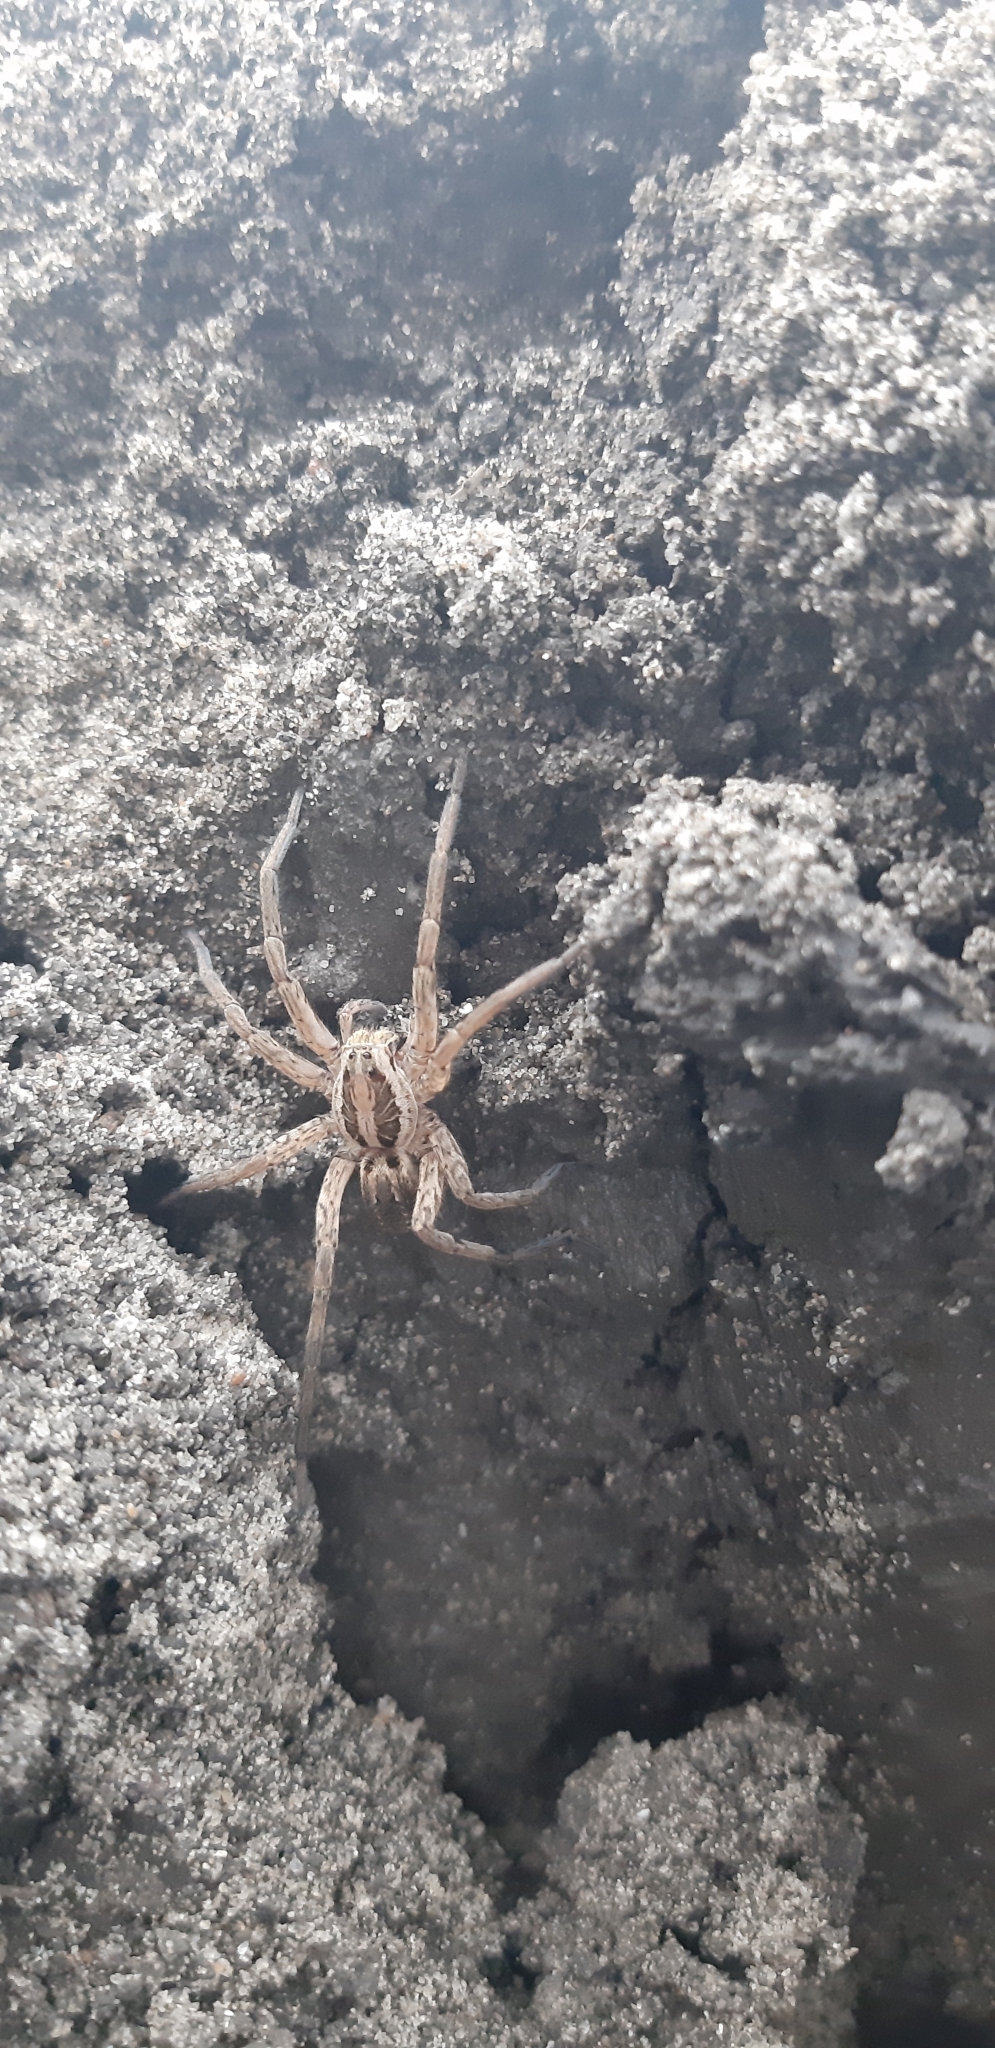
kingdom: Animalia
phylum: Arthropoda
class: Arachnida
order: Araneae
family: Lycosidae
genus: Hogna
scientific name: Hogna radiata
